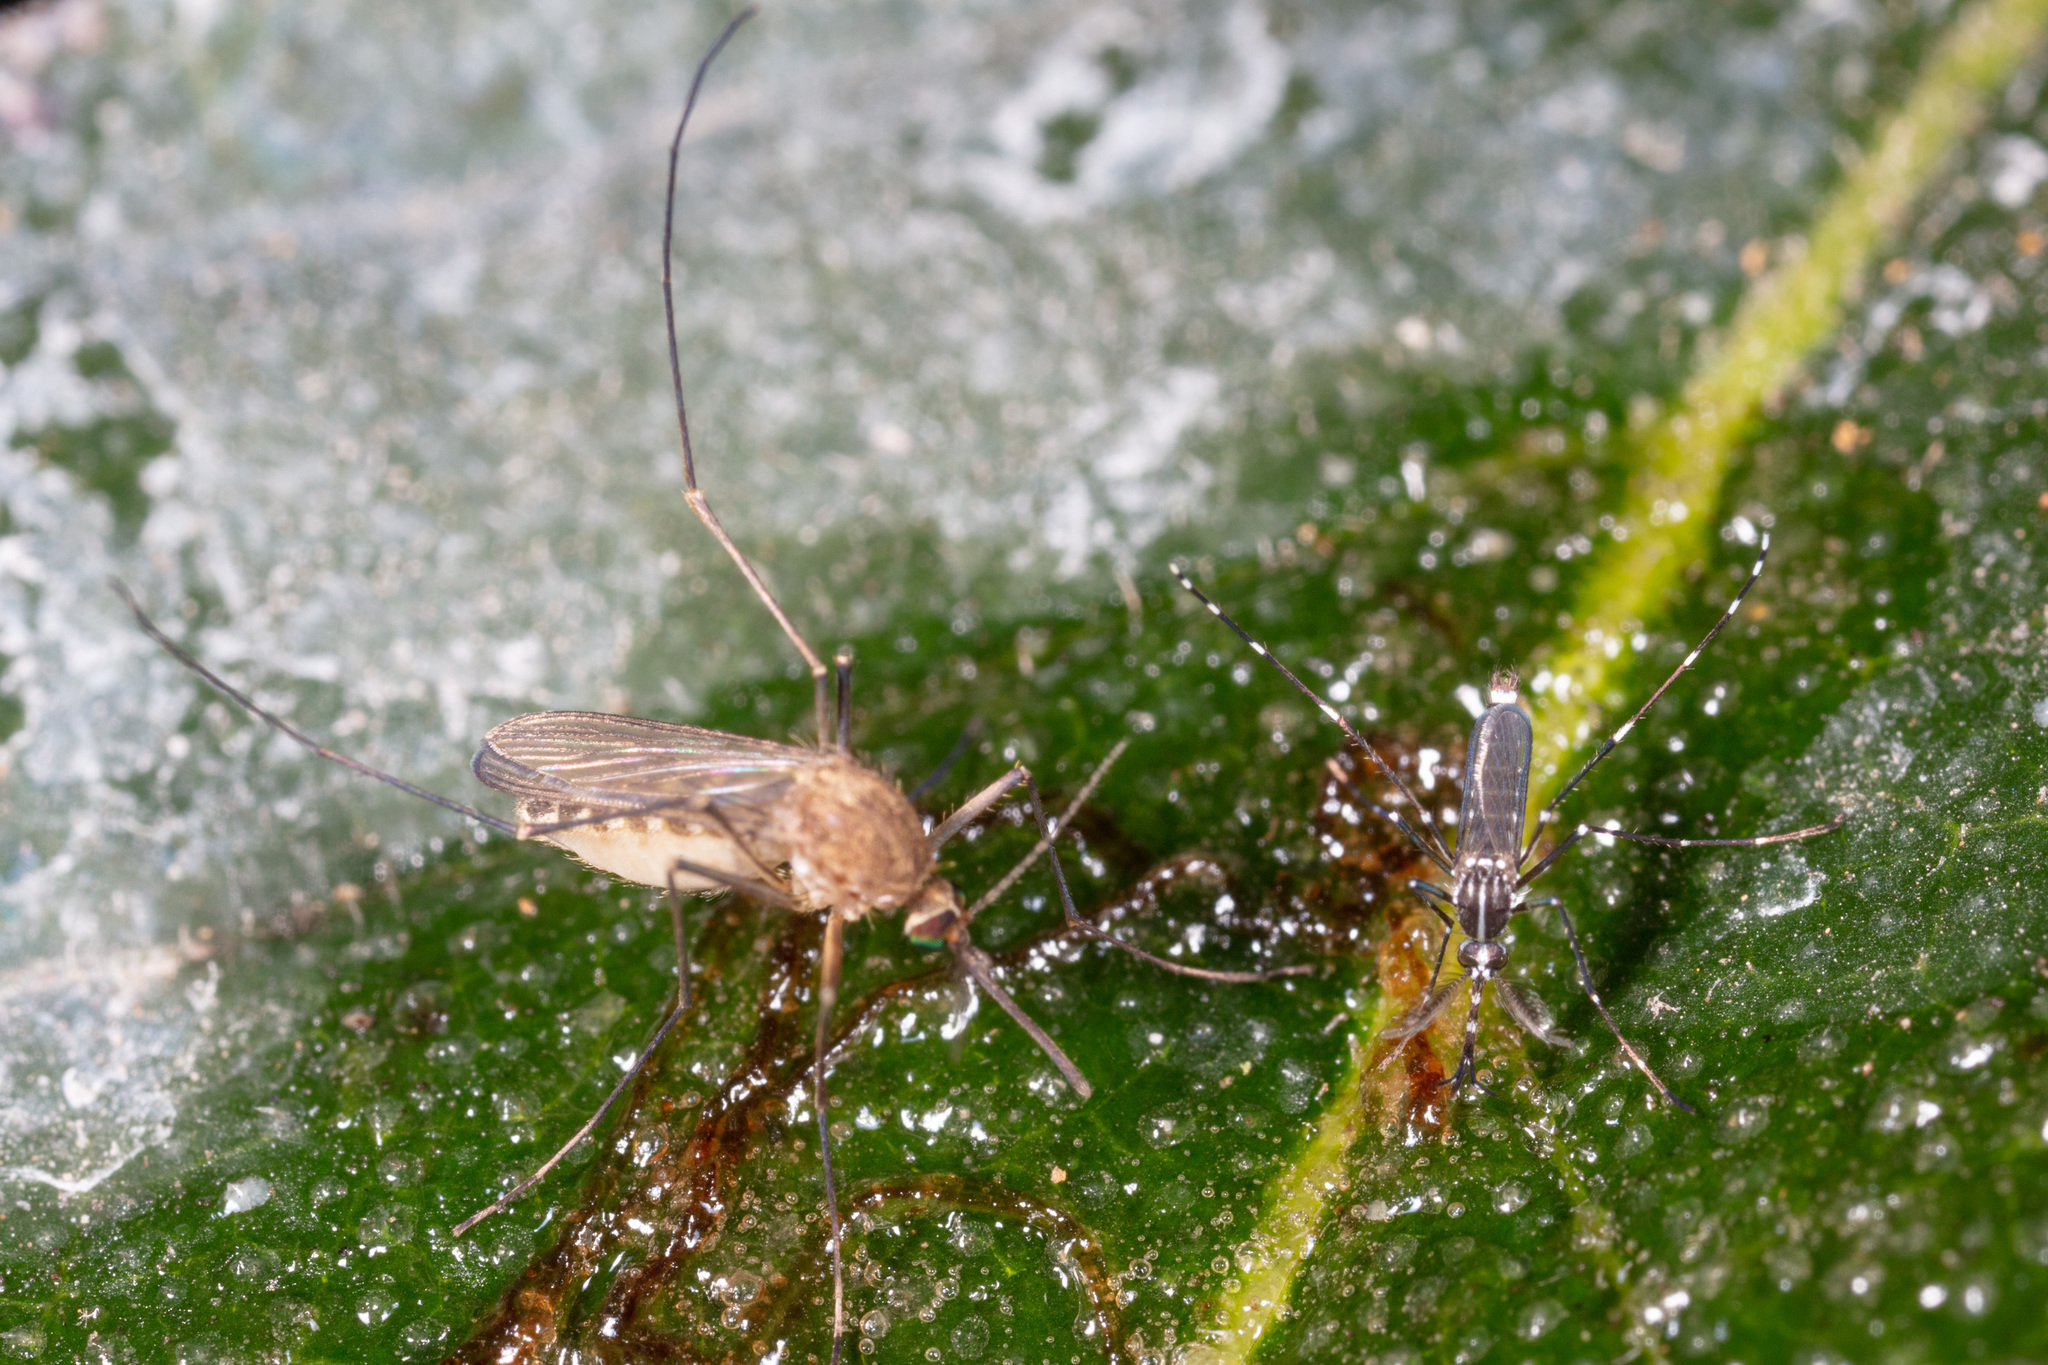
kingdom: Animalia
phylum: Arthropoda
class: Insecta
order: Diptera
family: Culicidae
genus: Aedes
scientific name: Aedes albopictus
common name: Tiger mosquito
